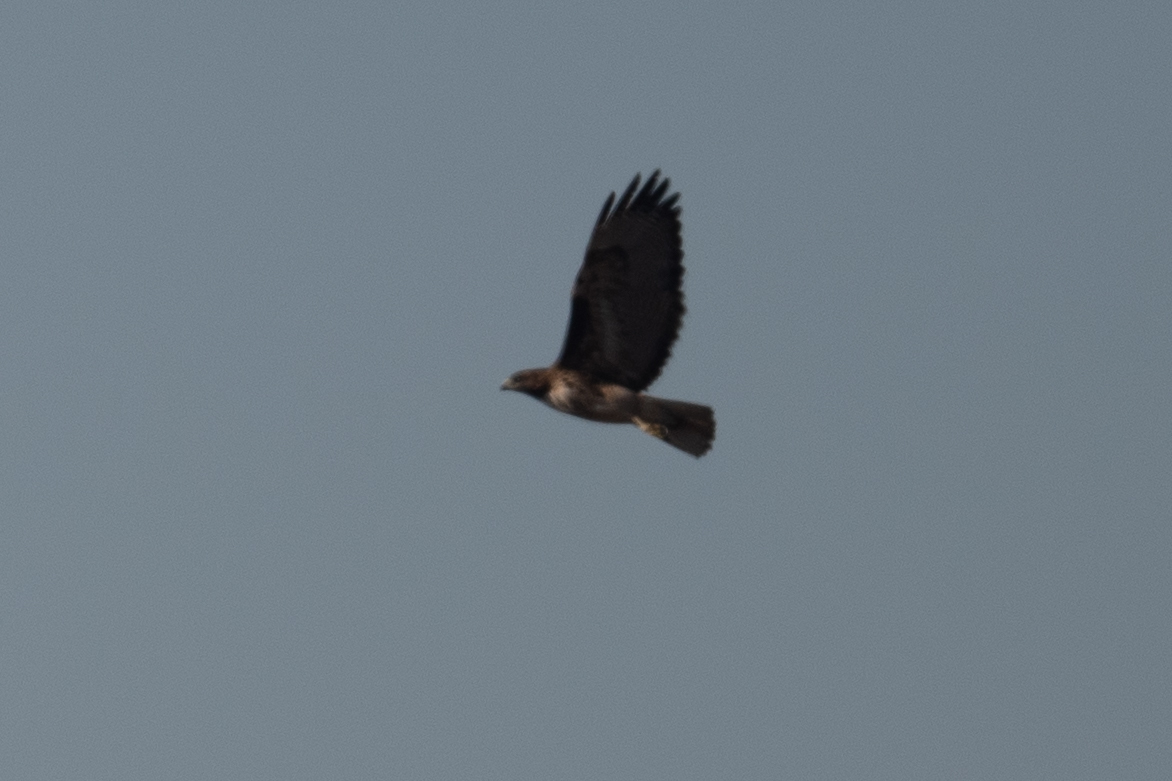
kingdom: Animalia
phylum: Chordata
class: Aves
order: Accipitriformes
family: Accipitridae
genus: Buteo
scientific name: Buteo jamaicensis
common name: Red-tailed hawk
